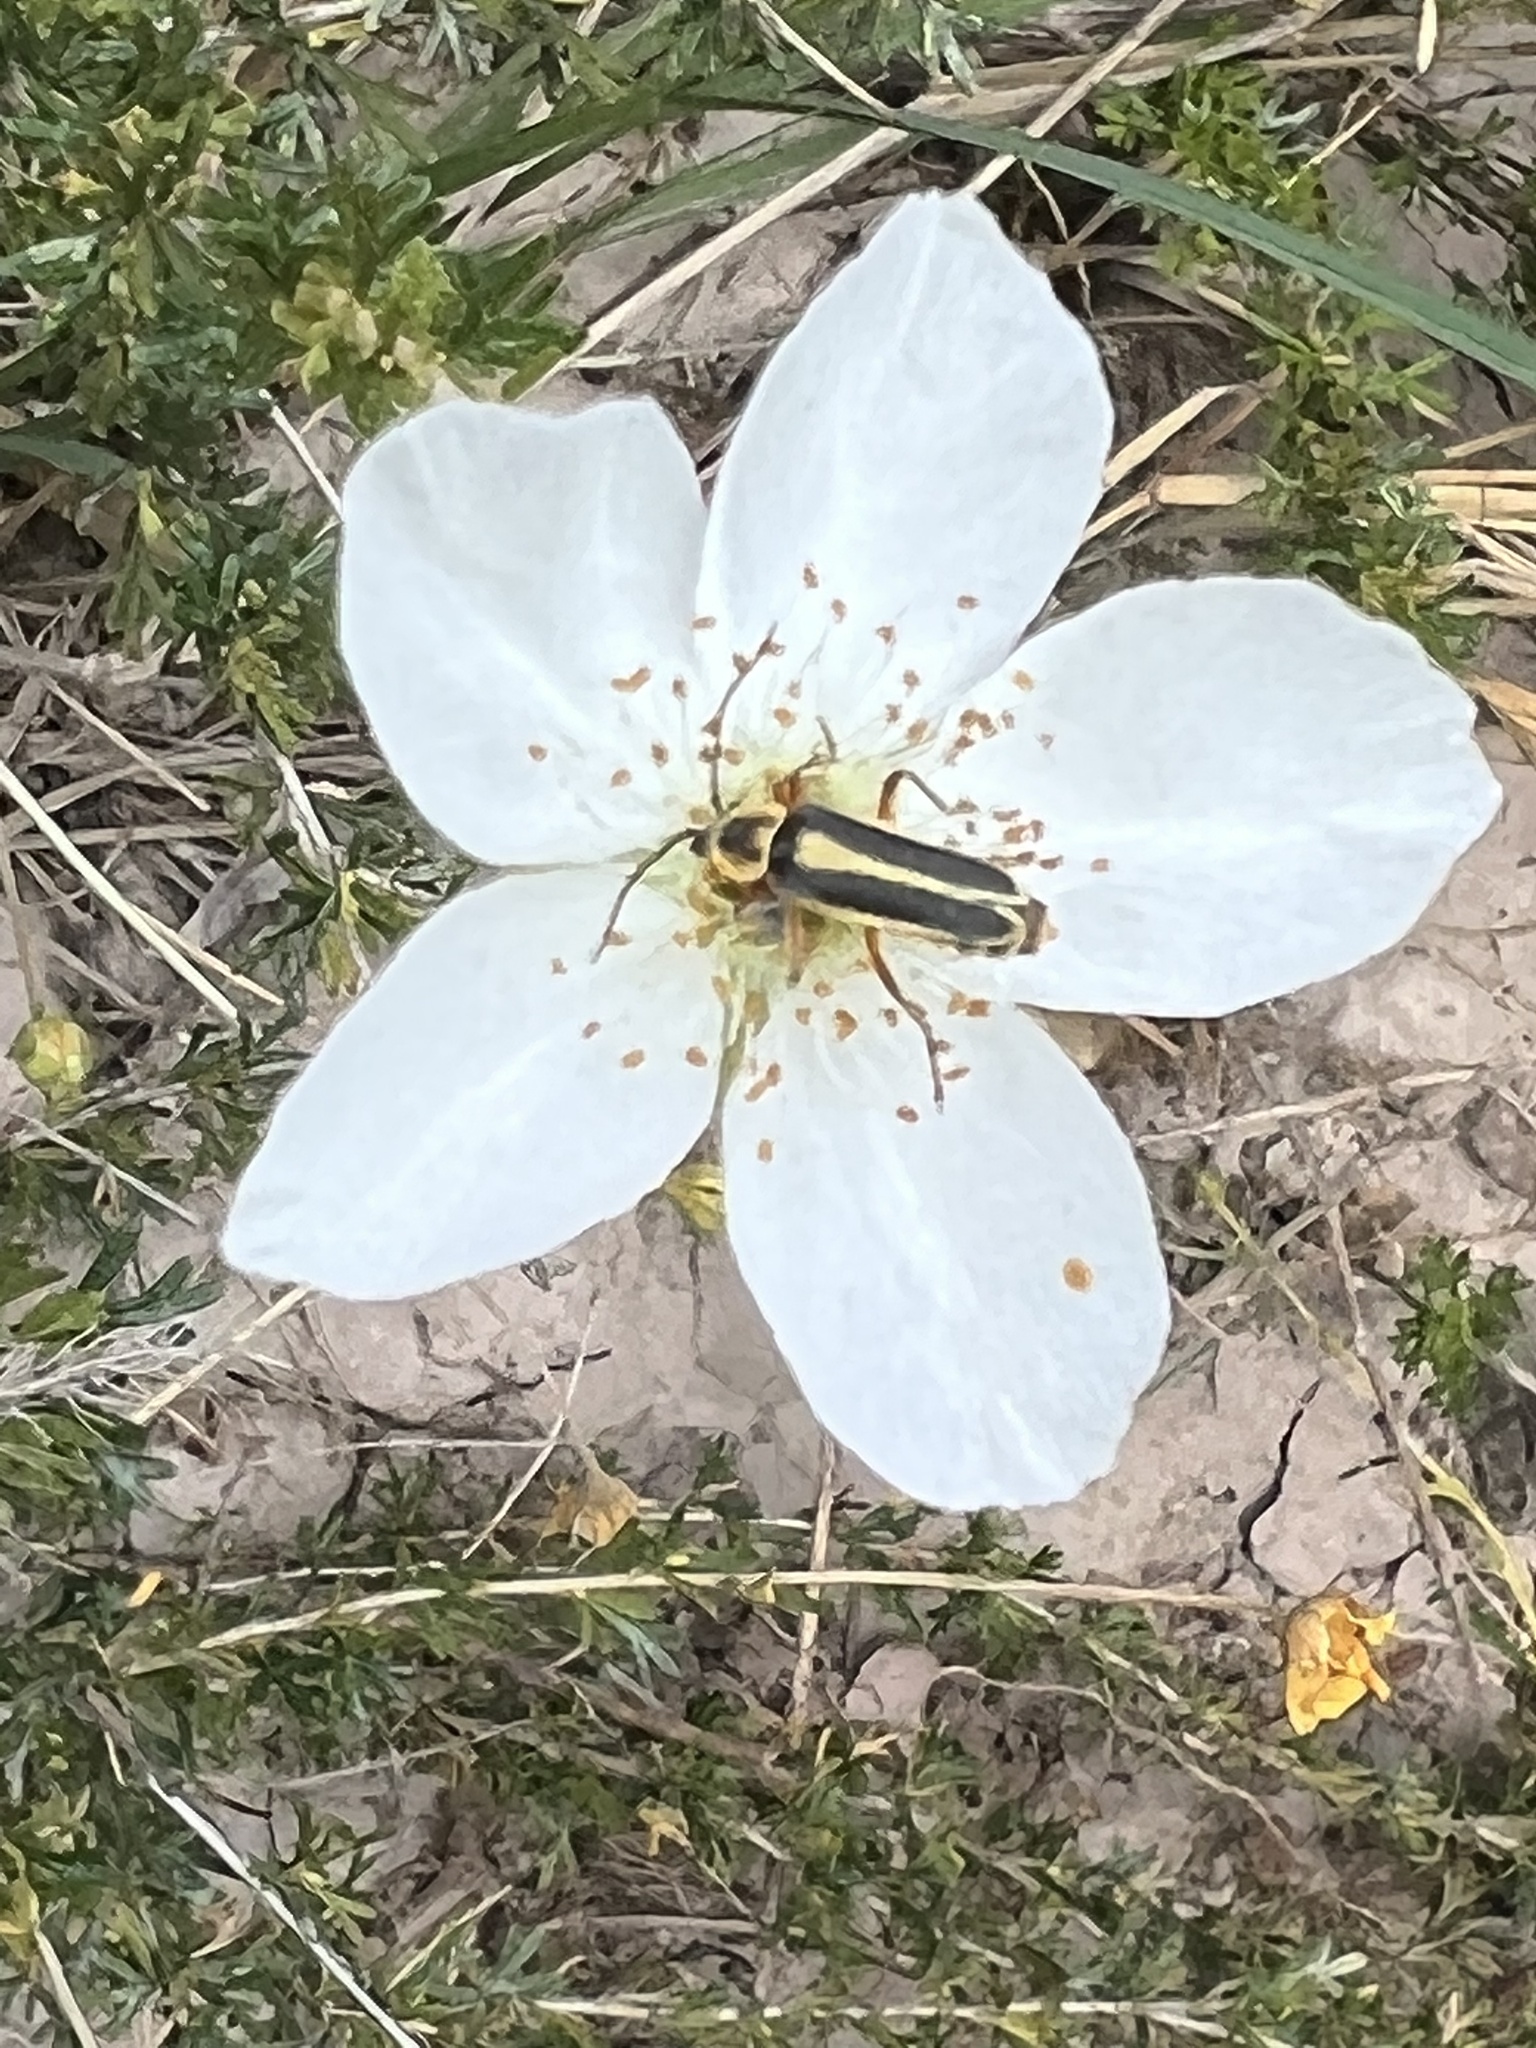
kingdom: Animalia
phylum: Arthropoda
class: Insecta
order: Coleoptera
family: Cantharidae
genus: Chauliognathus
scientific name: Chauliognathus lewisi
